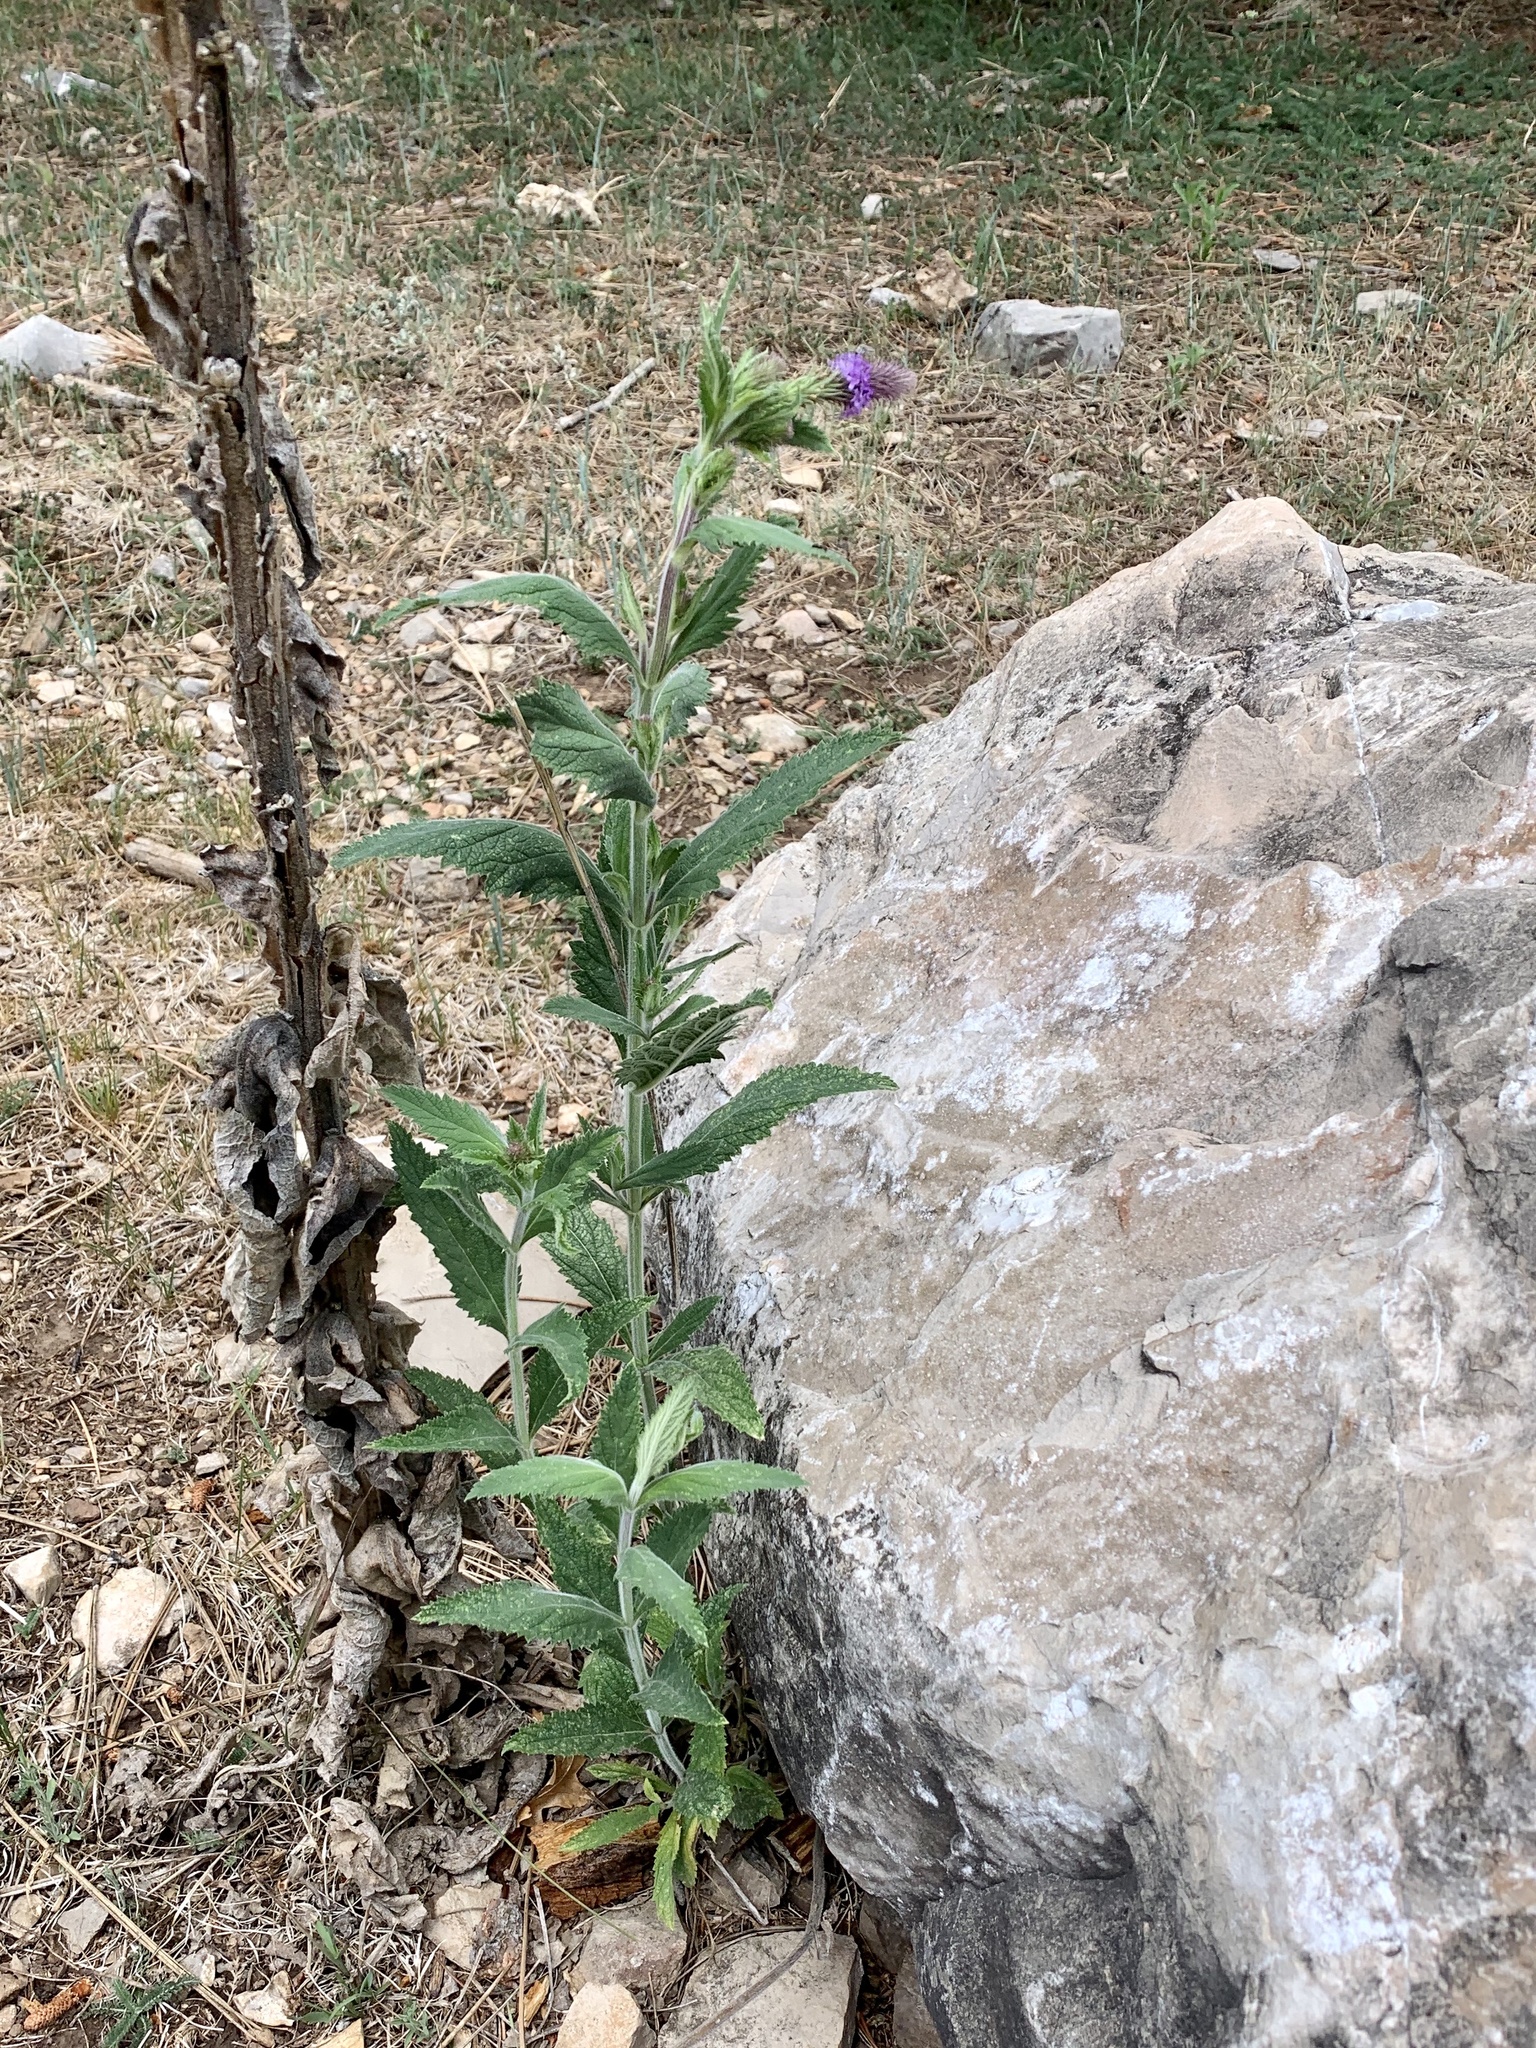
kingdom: Plantae
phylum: Tracheophyta
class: Magnoliopsida
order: Lamiales
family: Verbenaceae
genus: Verbena
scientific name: Verbena macdougalii
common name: New mexico vervain
